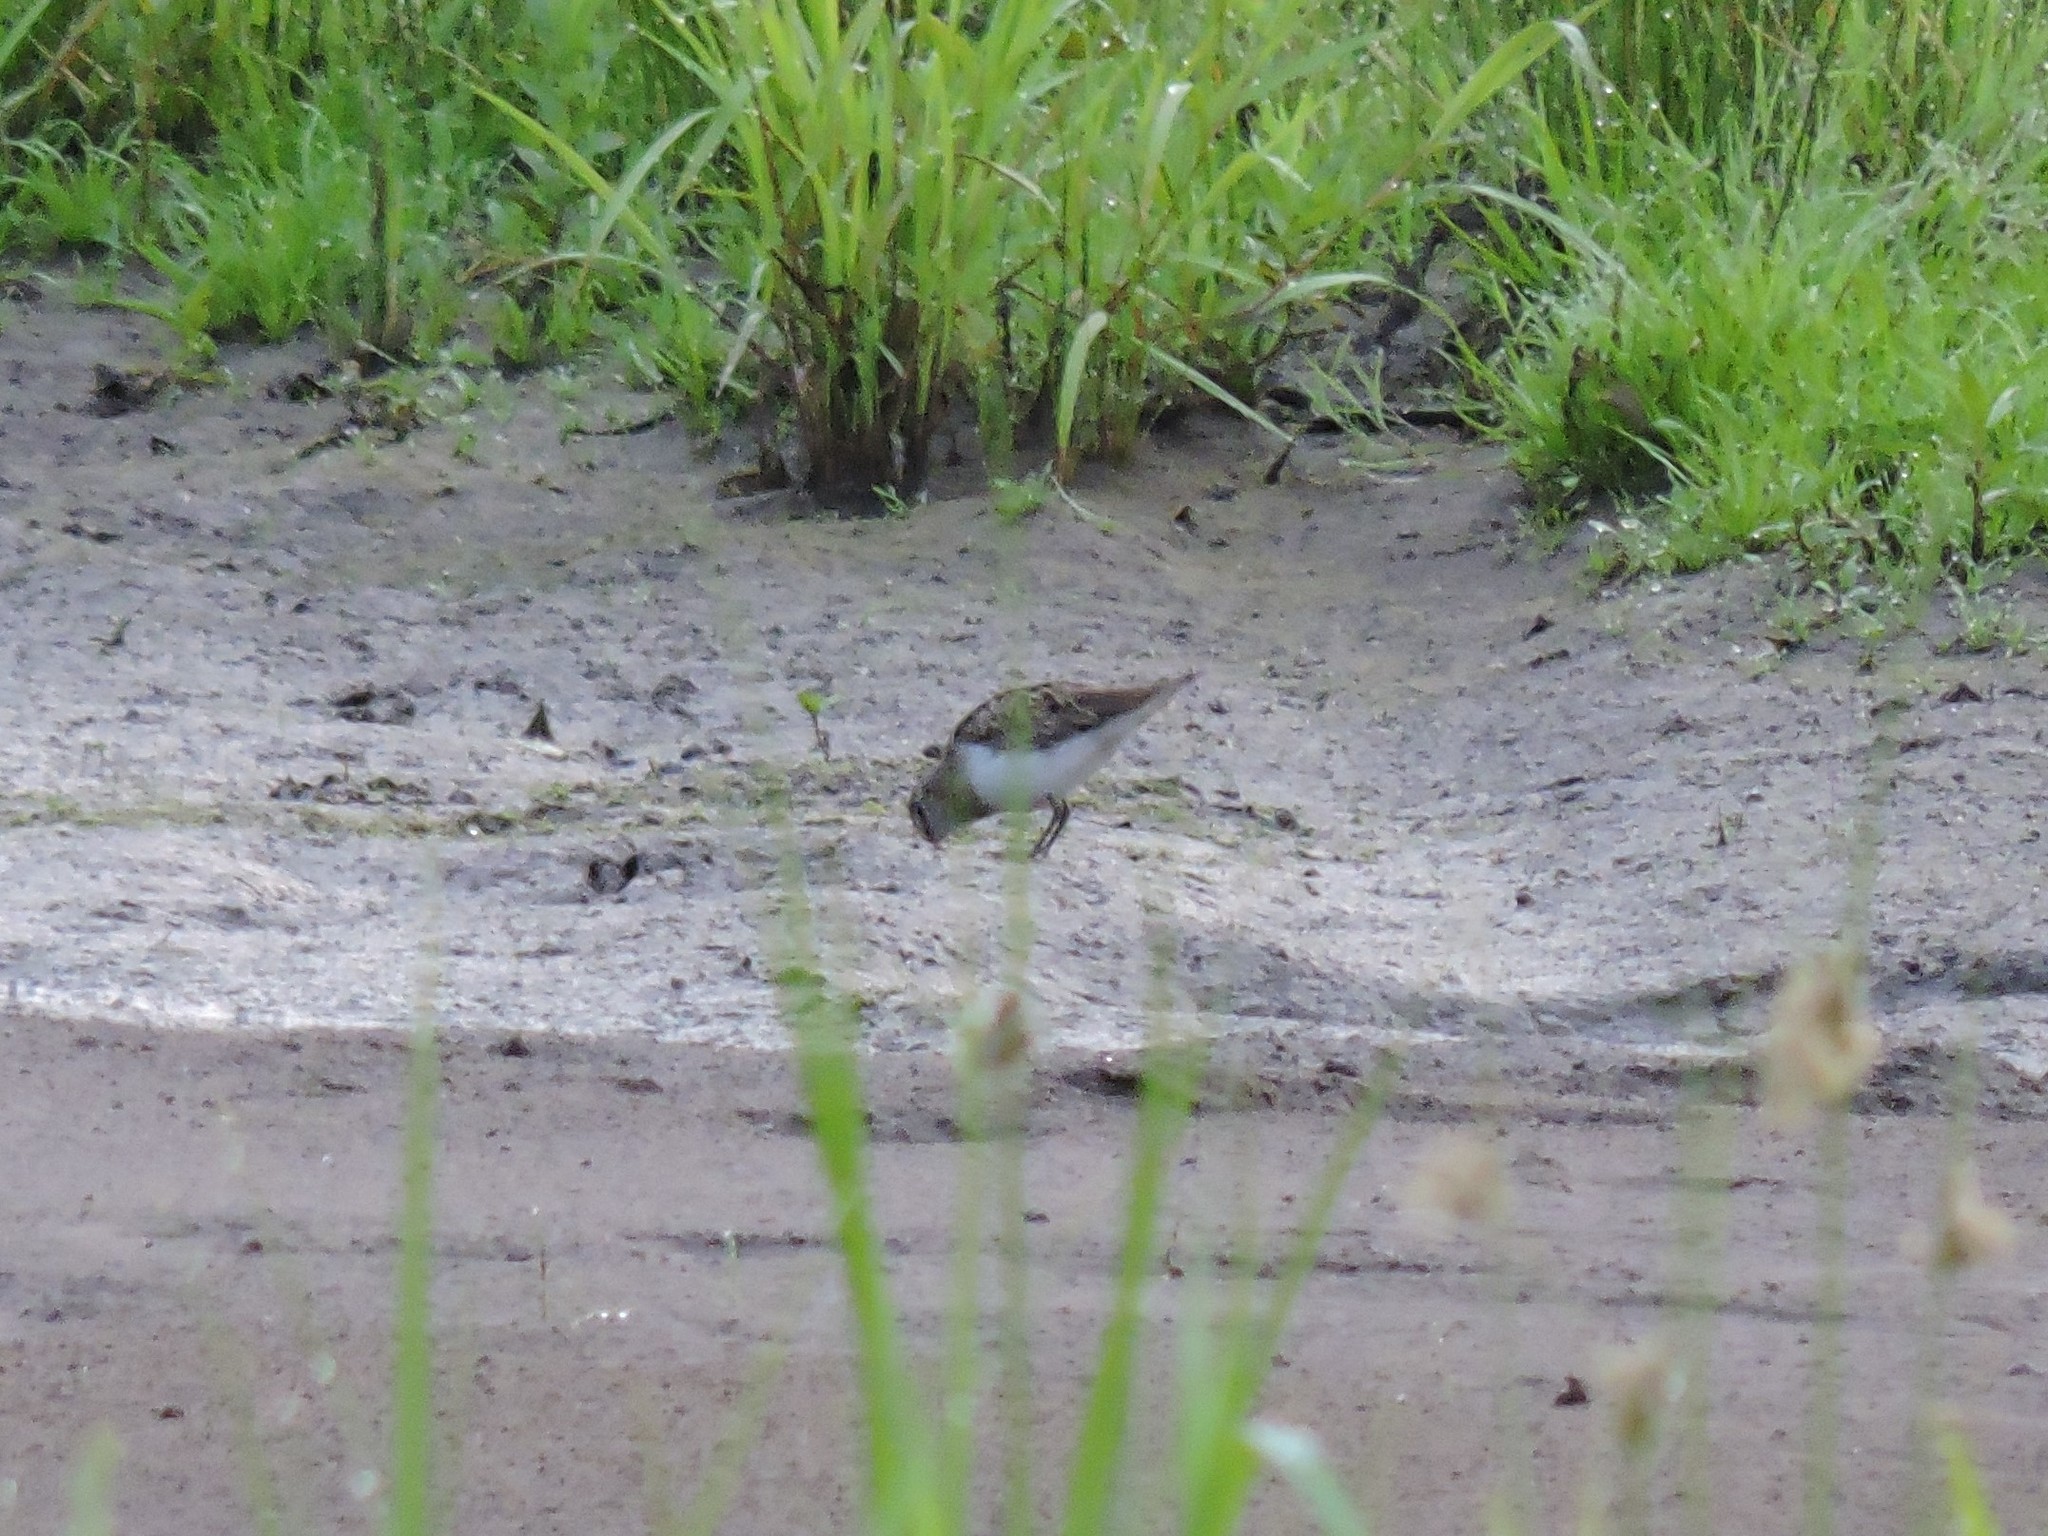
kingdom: Animalia
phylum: Chordata
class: Aves
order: Charadriiformes
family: Scolopacidae
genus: Calidris
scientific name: Calidris temminckii
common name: Temminck's stint
